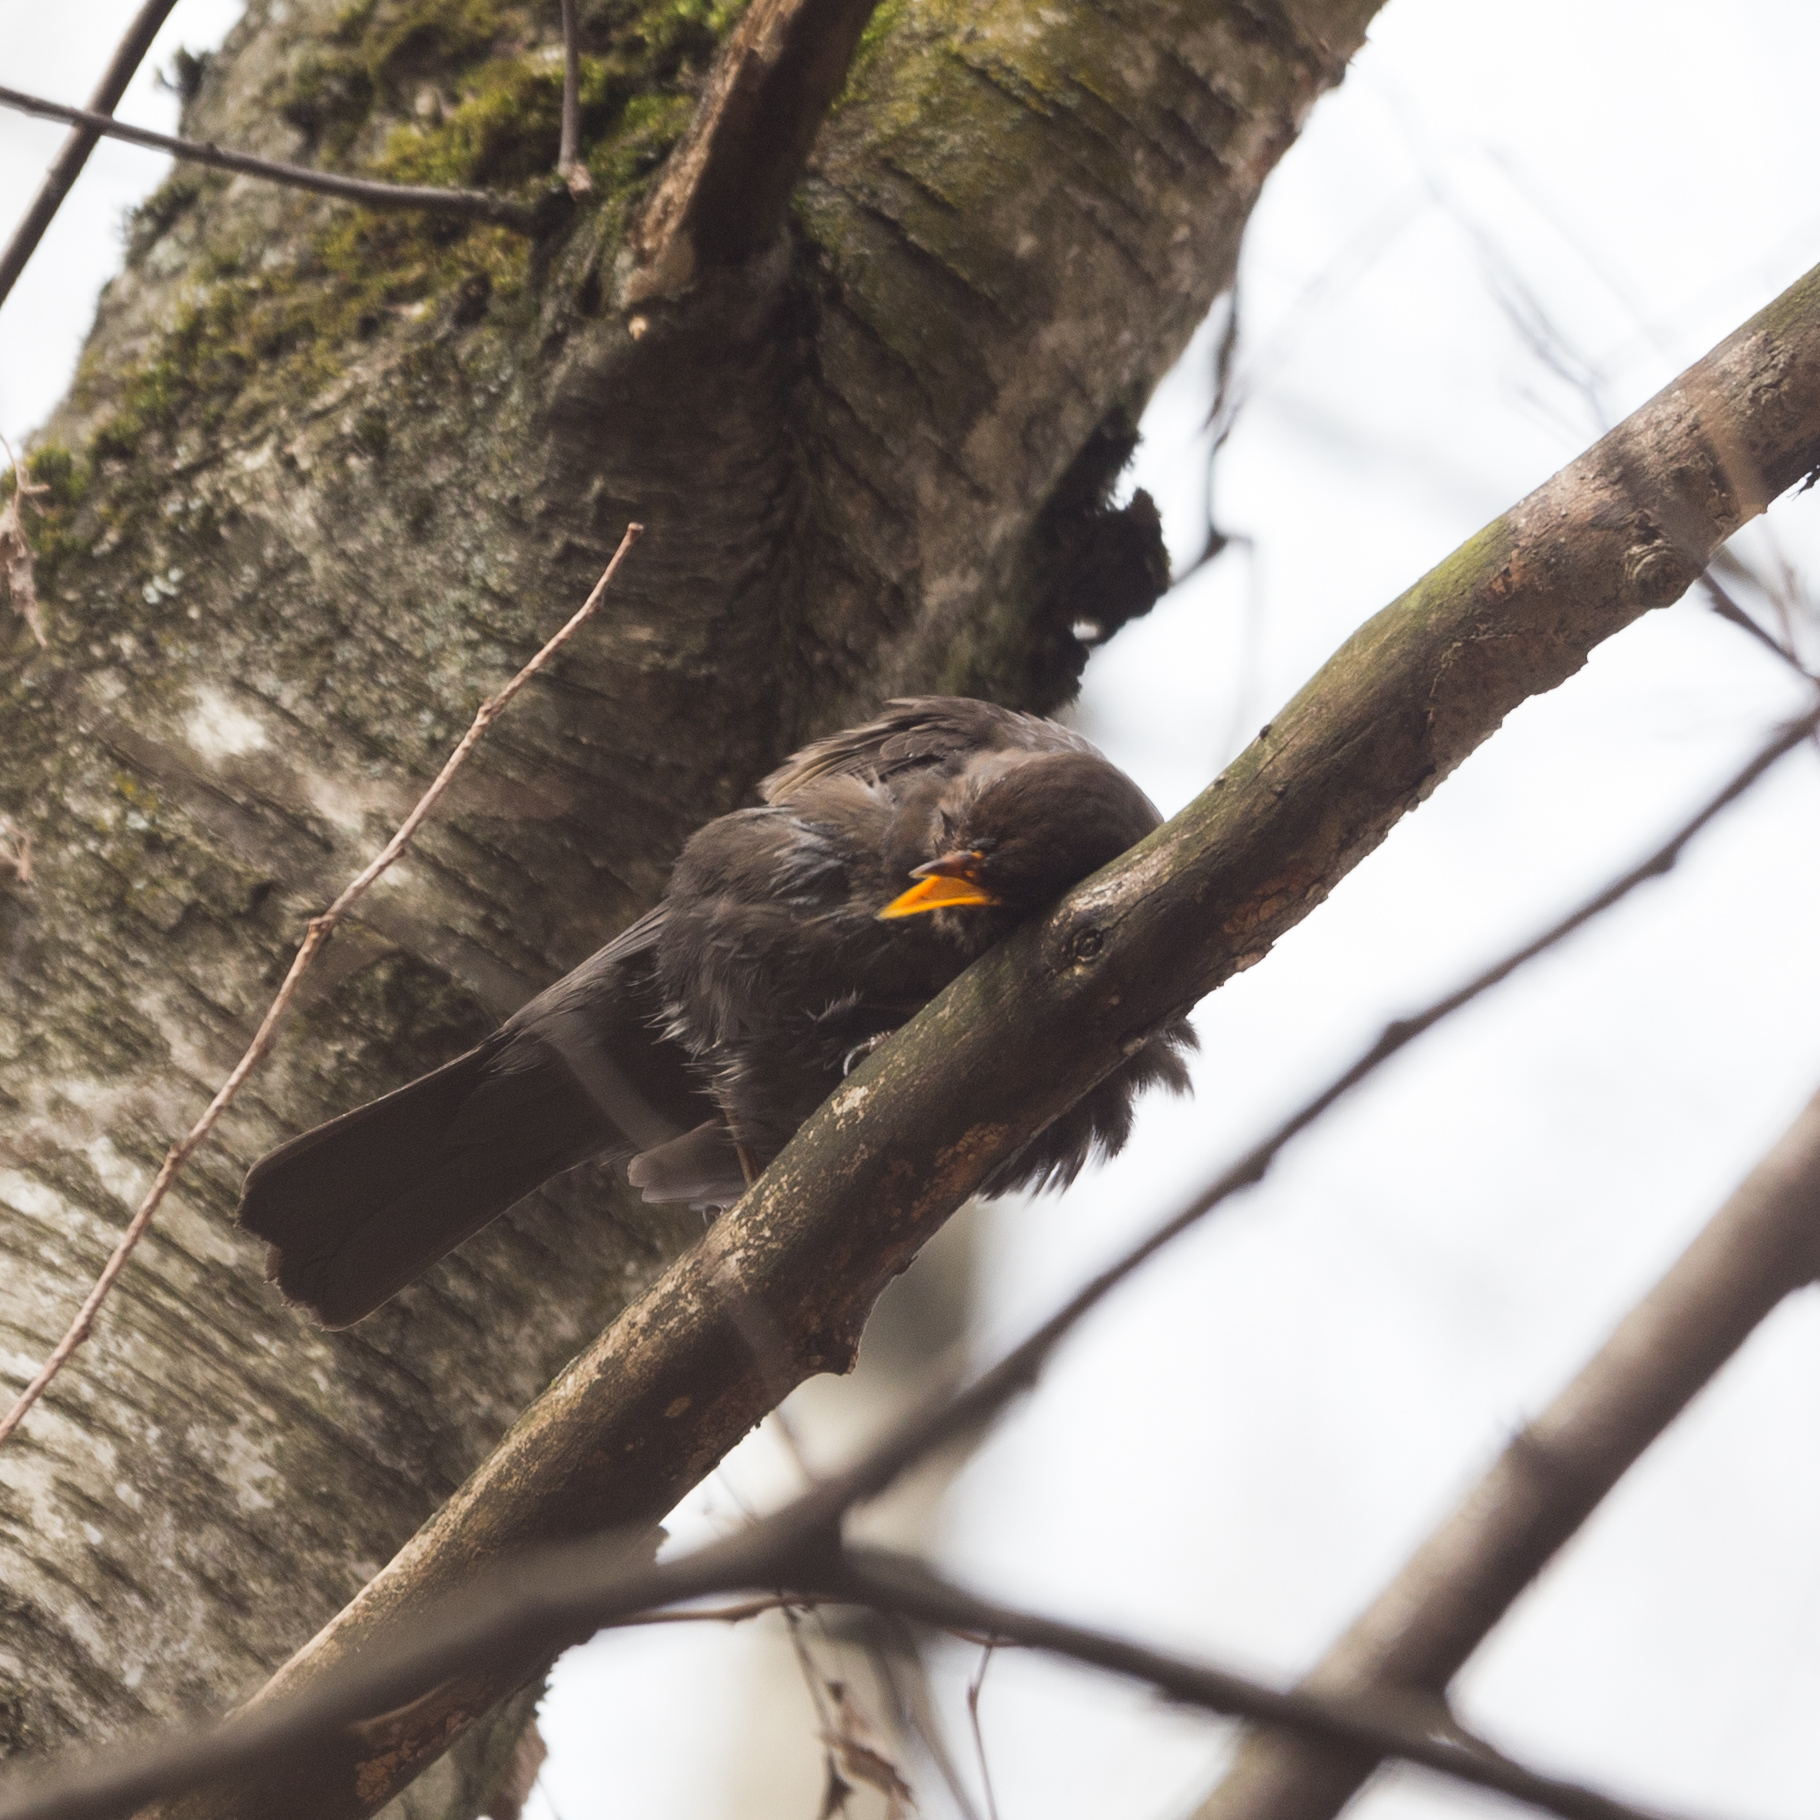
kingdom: Animalia
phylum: Chordata
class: Aves
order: Passeriformes
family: Turdidae
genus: Turdus
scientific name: Turdus merula
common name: Common blackbird
